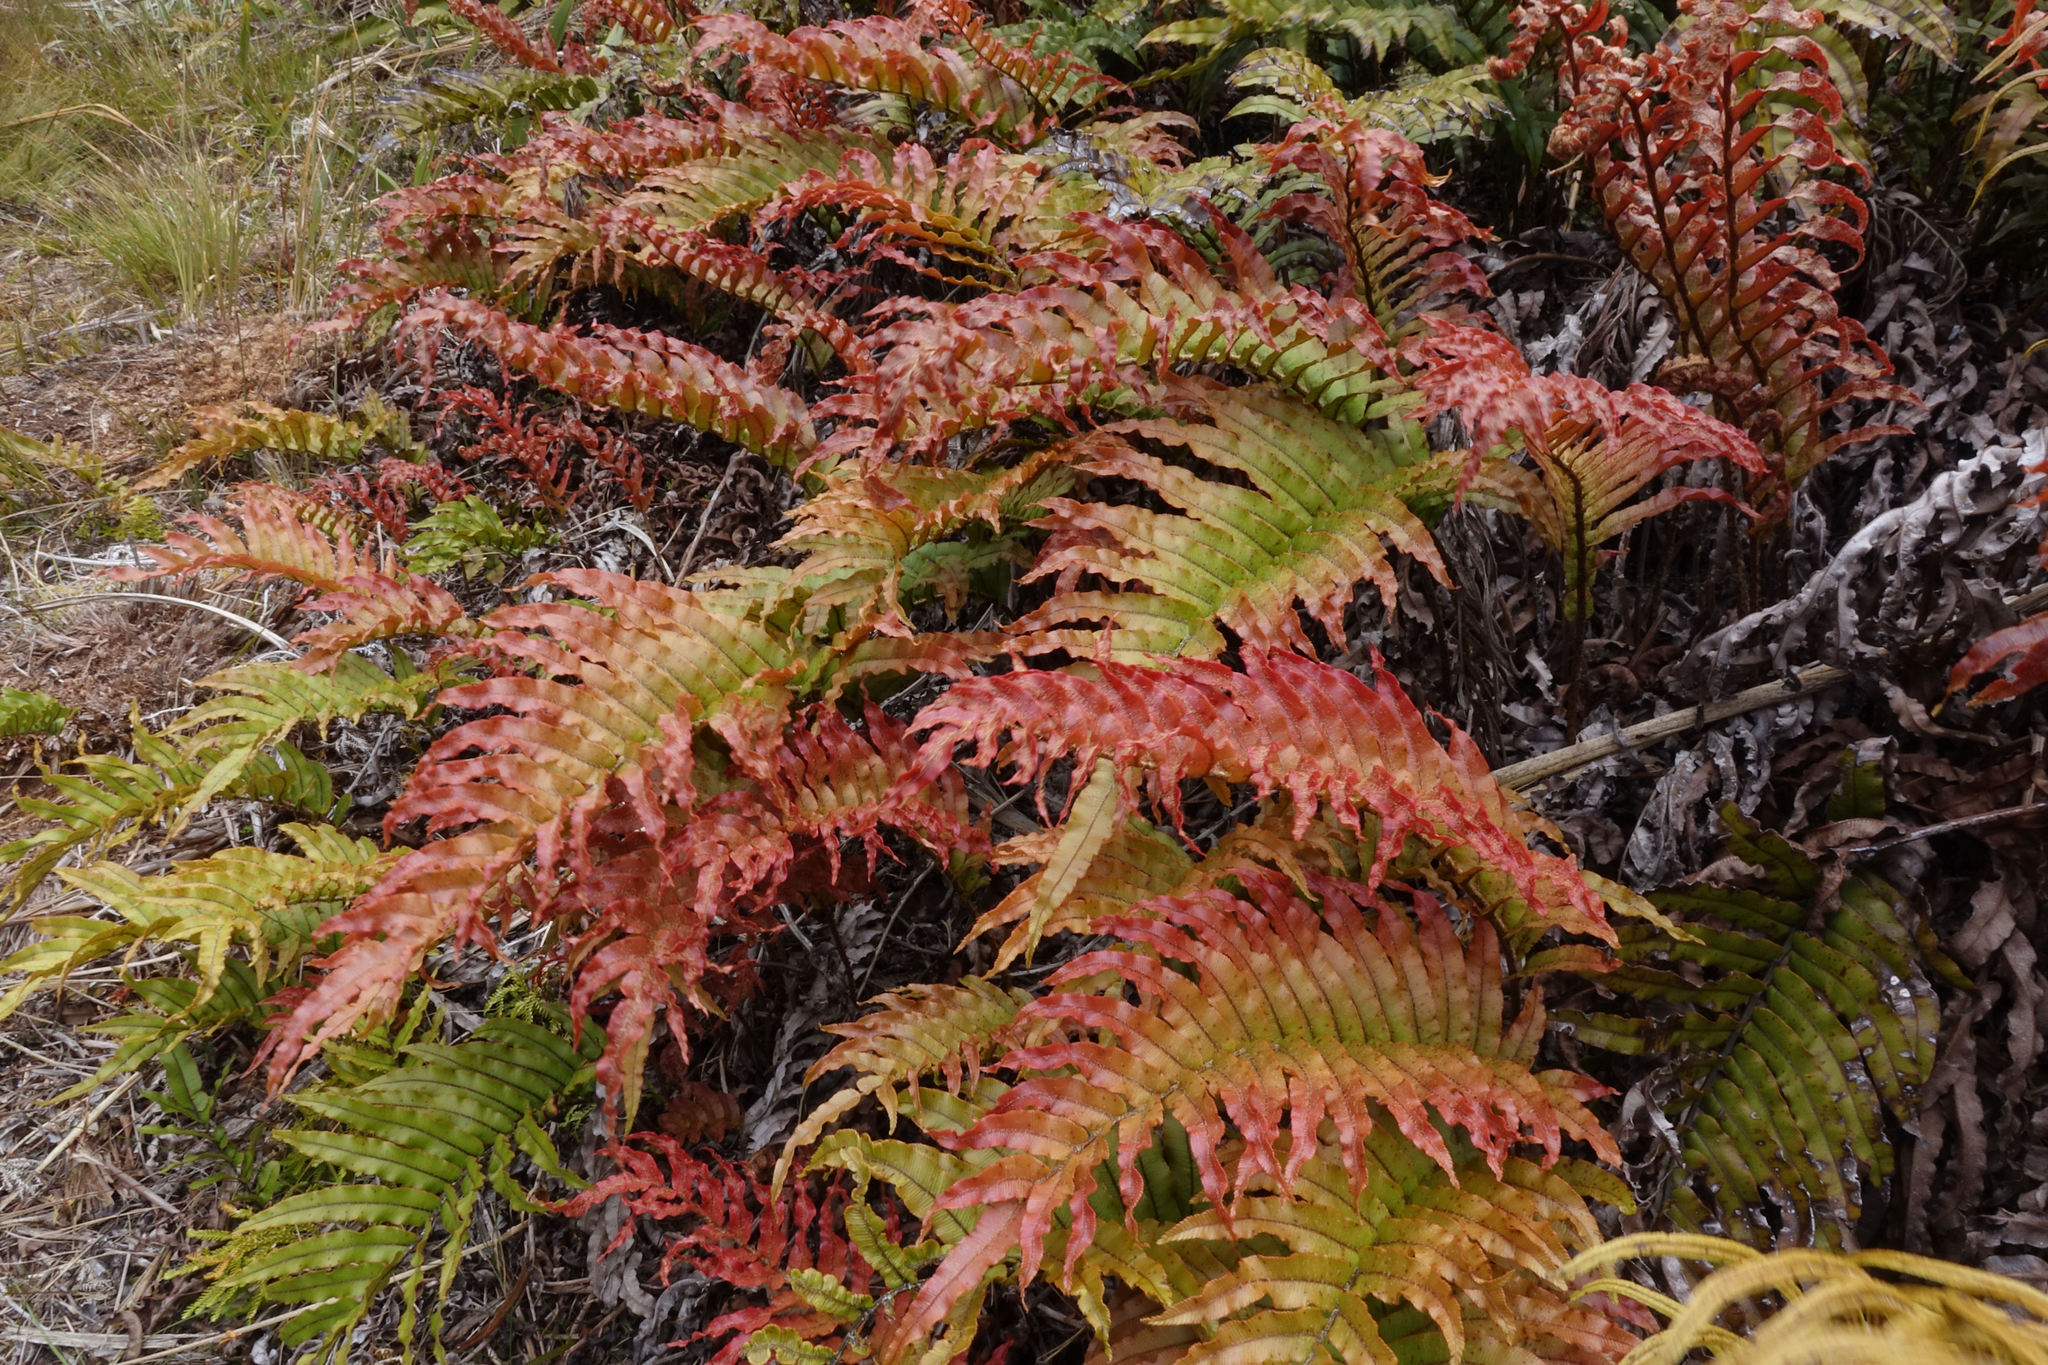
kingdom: Plantae
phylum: Tracheophyta
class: Polypodiopsida
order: Polypodiales
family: Blechnaceae
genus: Parablechnum
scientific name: Parablechnum montanum
